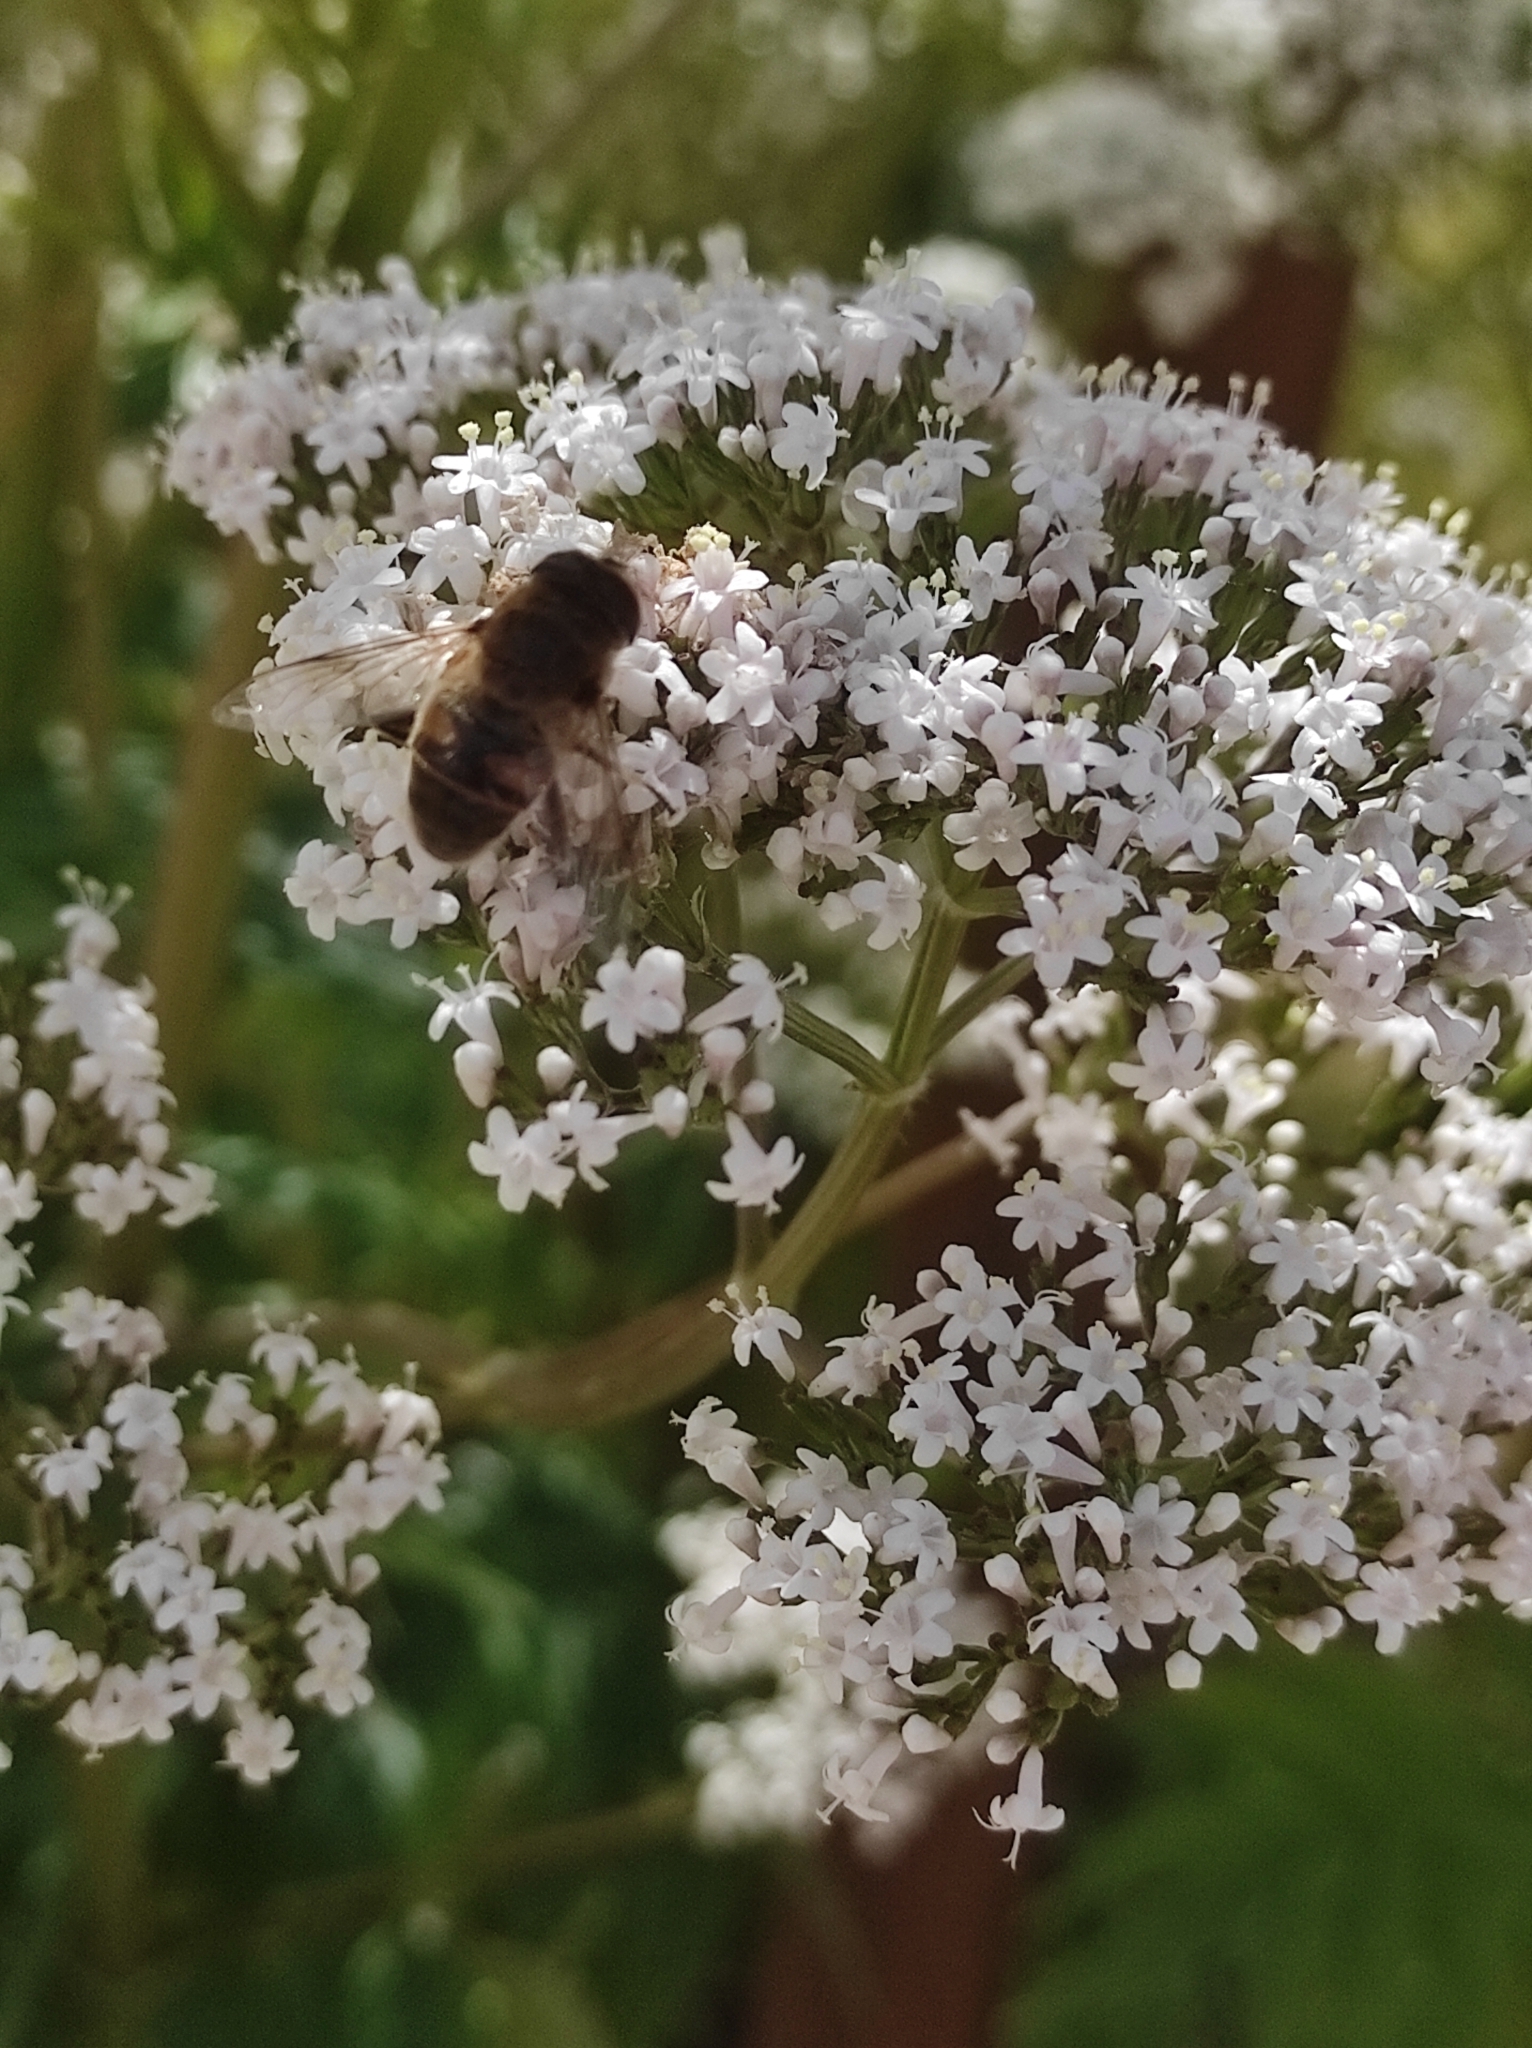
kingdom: Animalia
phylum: Arthropoda
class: Insecta
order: Diptera
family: Syrphidae
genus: Eristalis
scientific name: Eristalis tenax
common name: Drone fly
